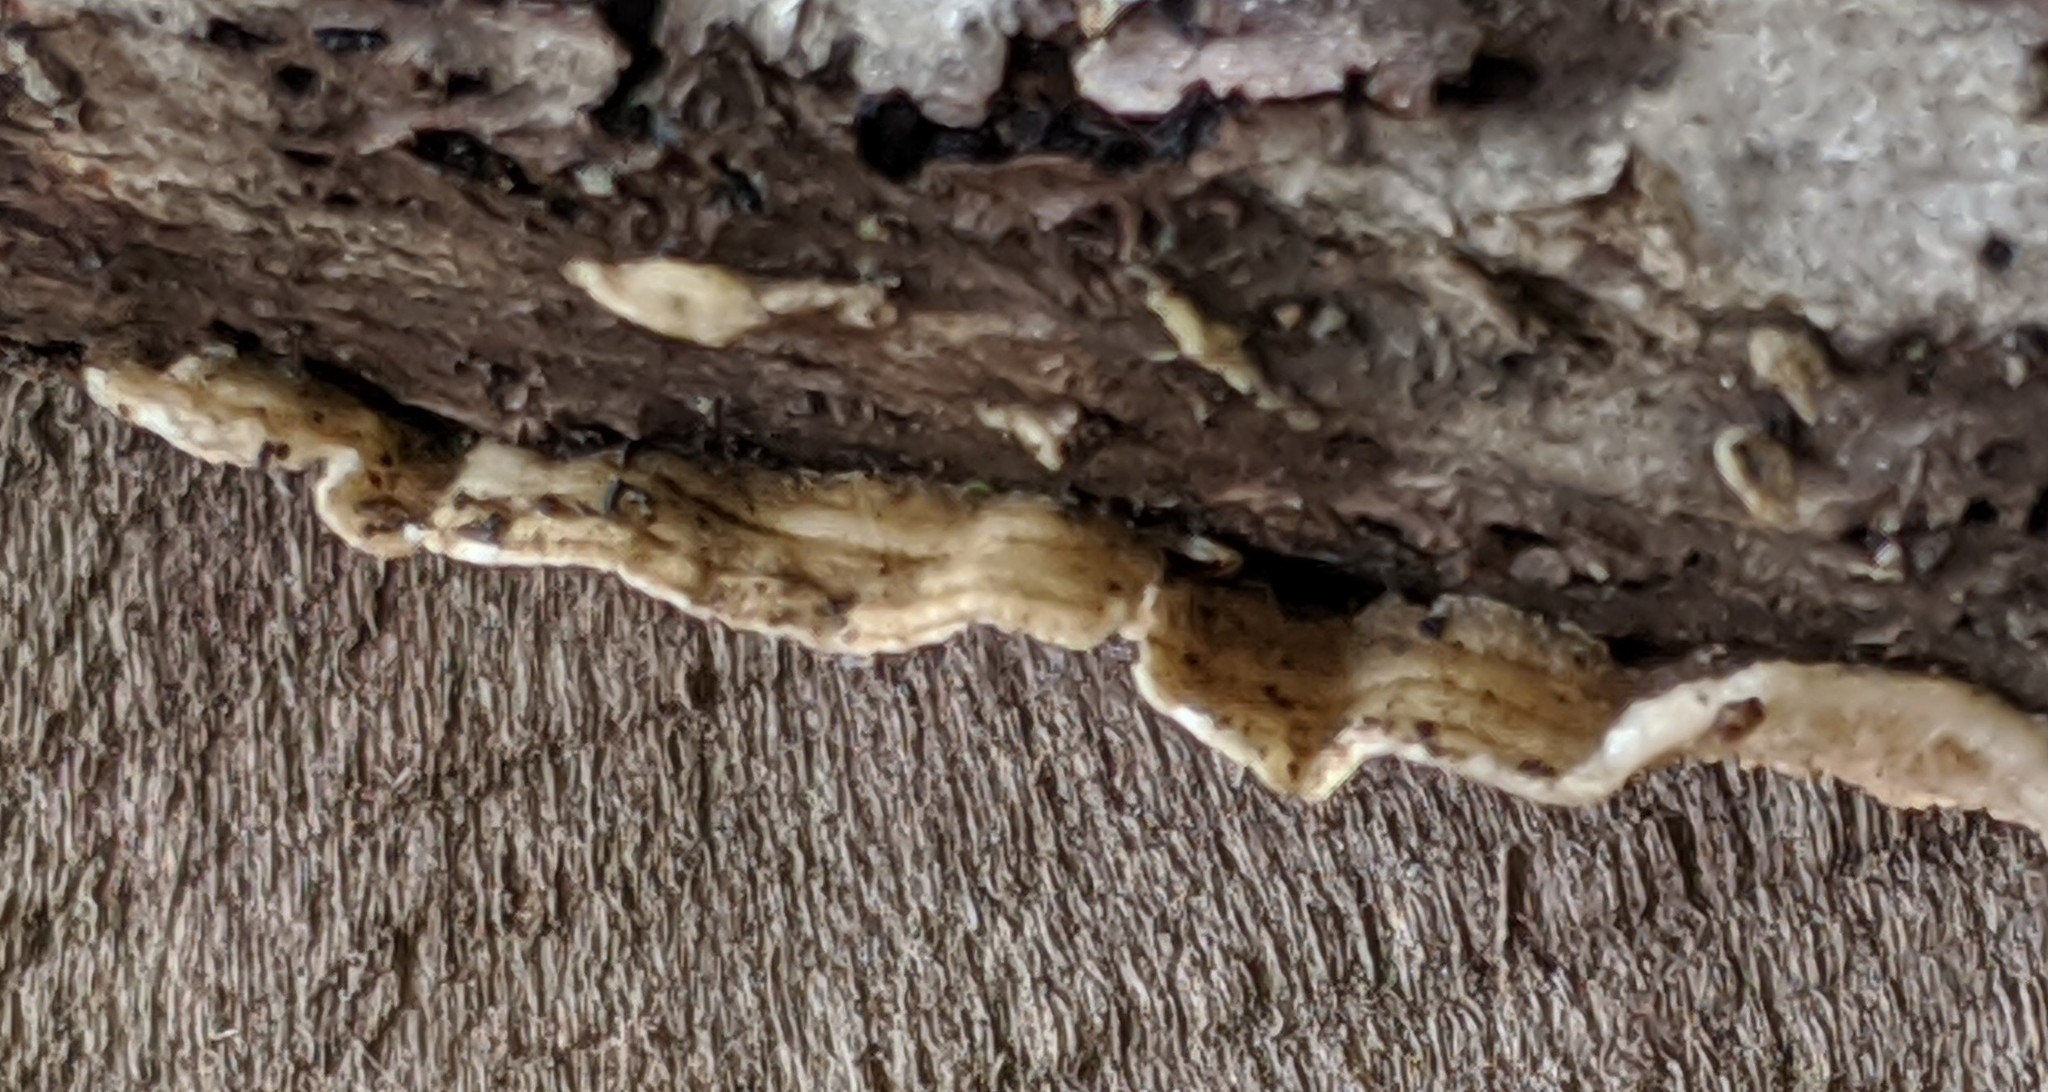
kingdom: Fungi
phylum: Basidiomycota
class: Agaricomycetes
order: Polyporales
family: Irpicaceae
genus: Byssomerulius
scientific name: Byssomerulius corium
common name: Netted crust
